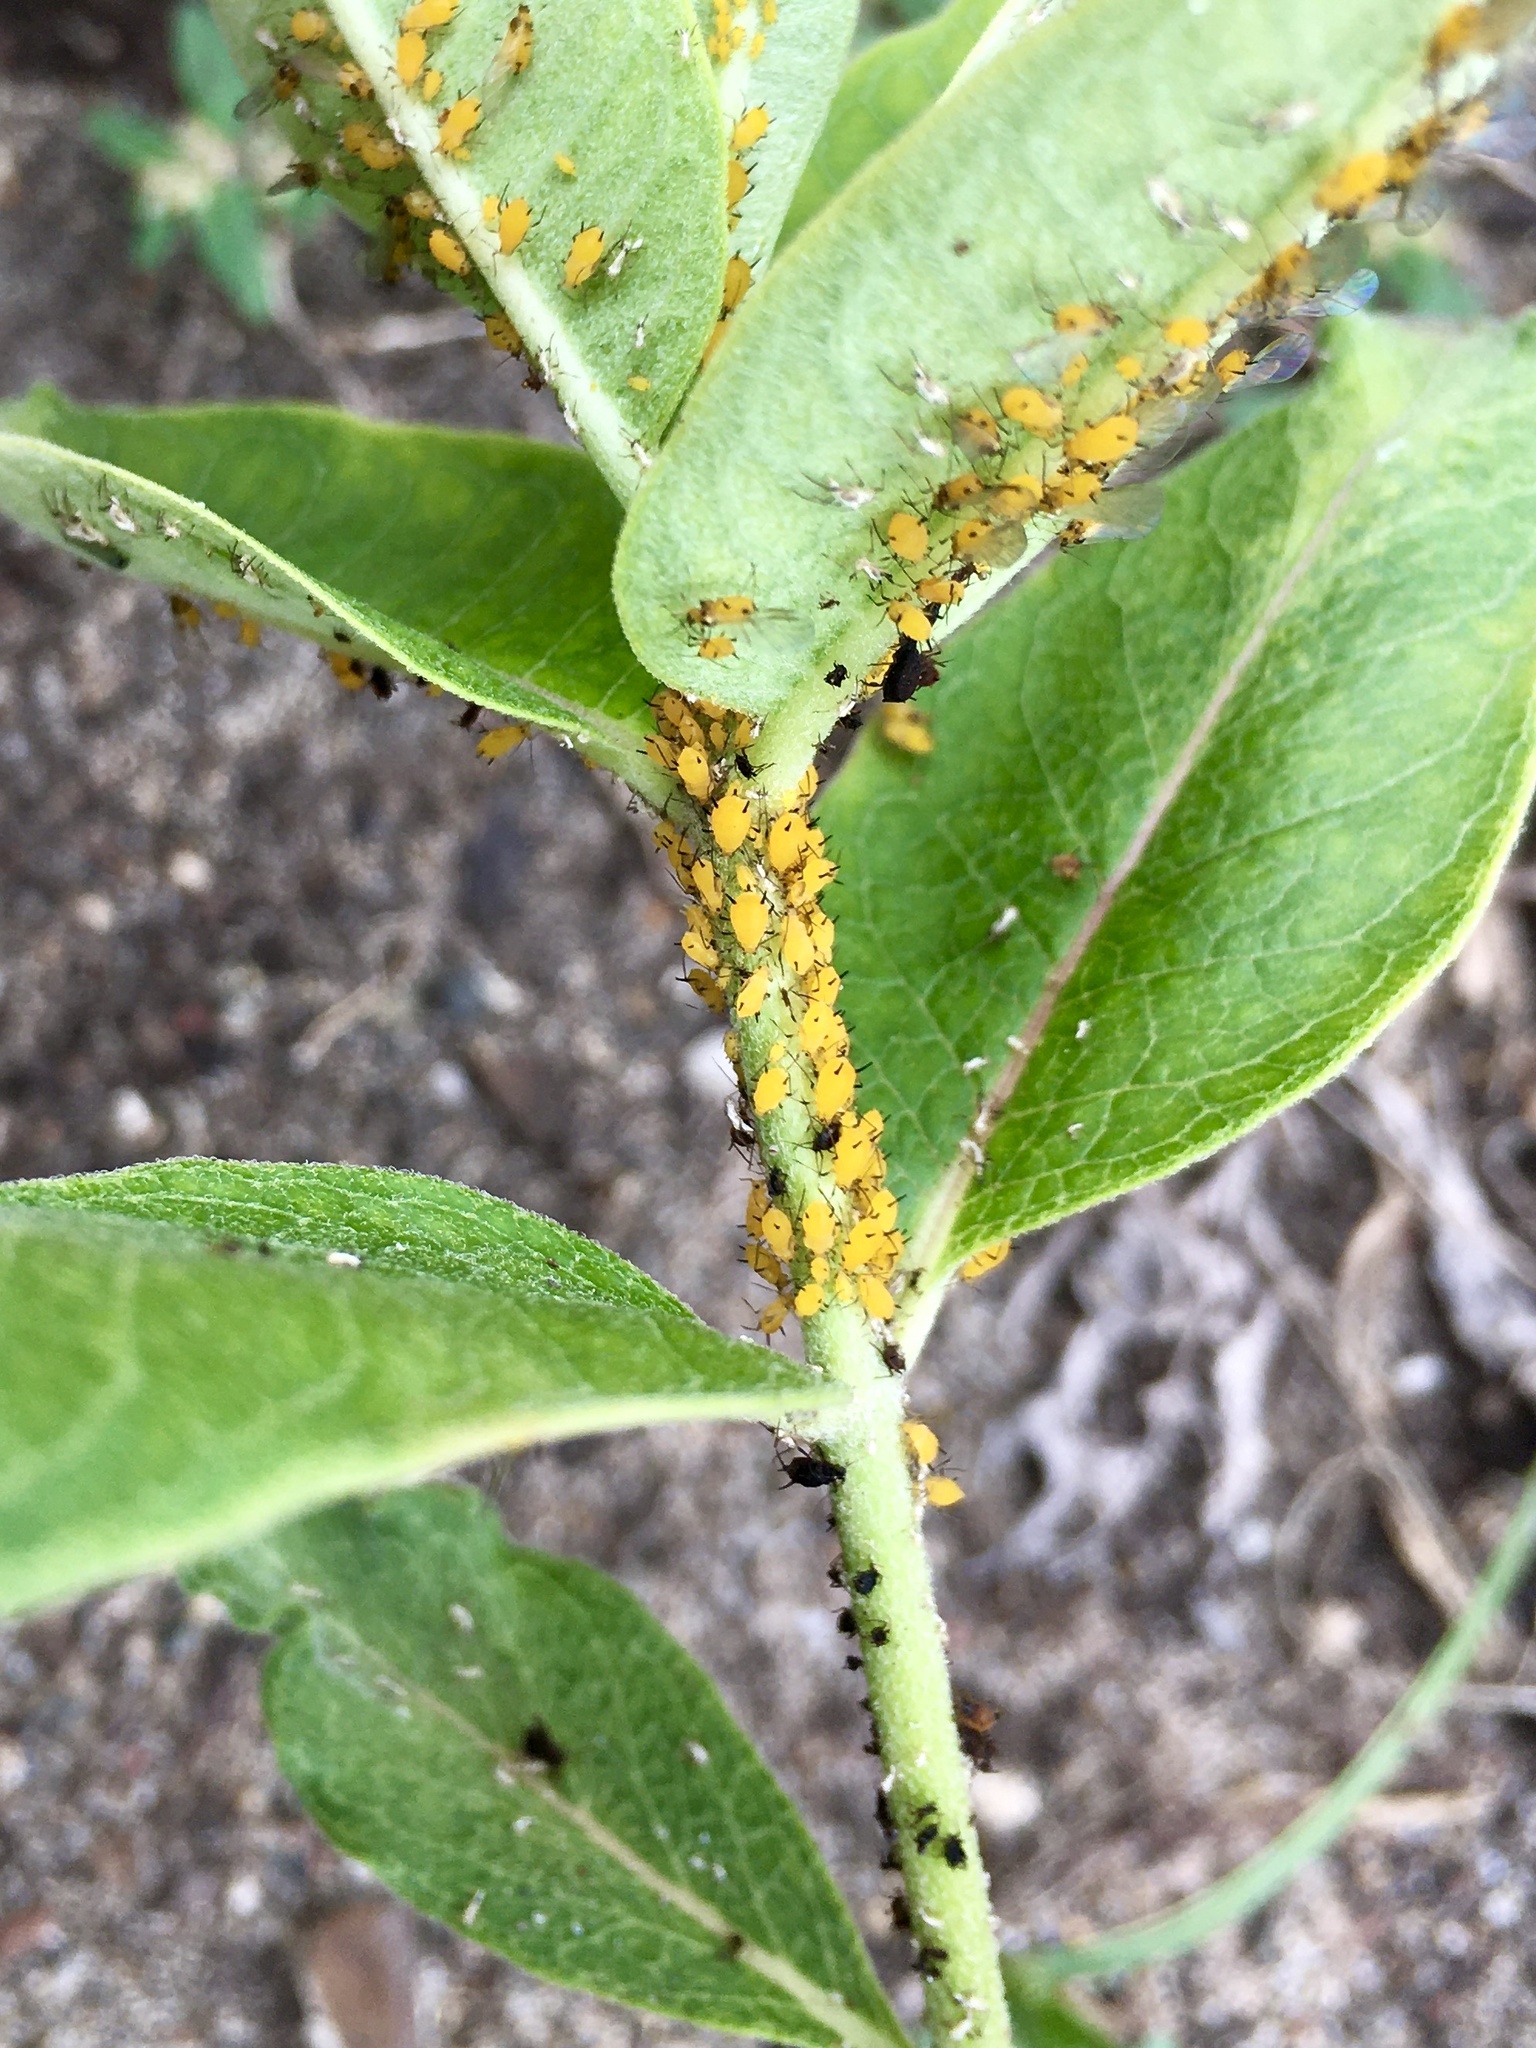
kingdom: Animalia
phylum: Arthropoda
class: Insecta
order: Hemiptera
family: Aphididae
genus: Aphis
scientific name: Aphis nerii
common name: Oleander aphid
